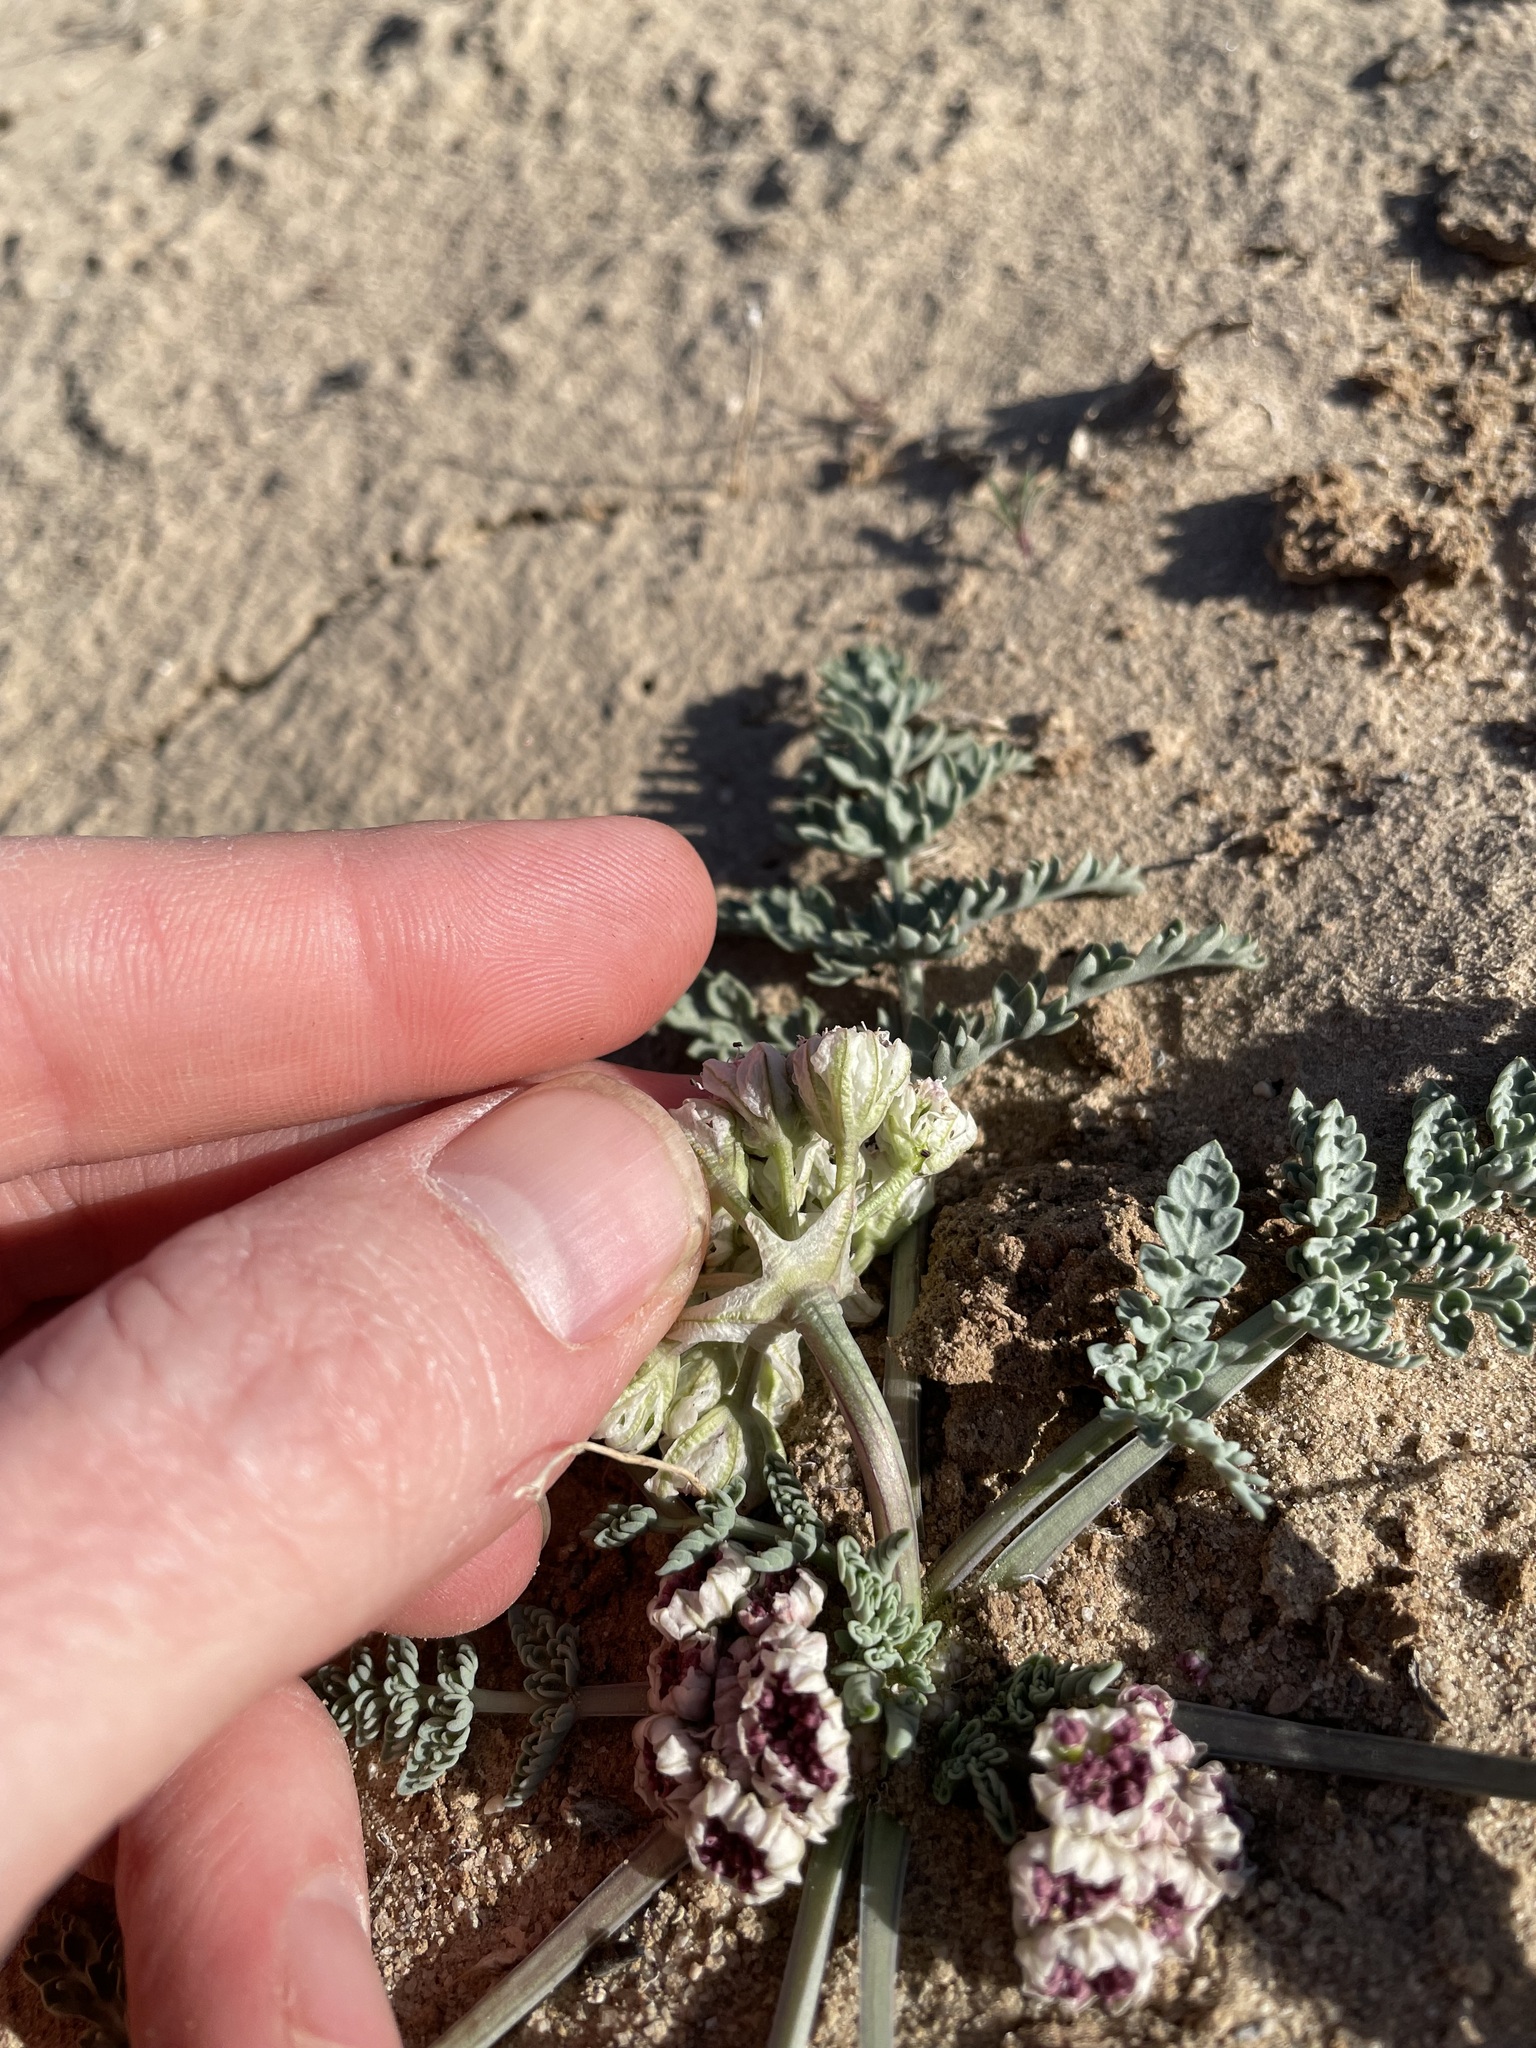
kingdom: Plantae
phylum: Tracheophyta
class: Magnoliopsida
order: Apiales
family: Apiaceae
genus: Vesper
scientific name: Vesper bulbosus
